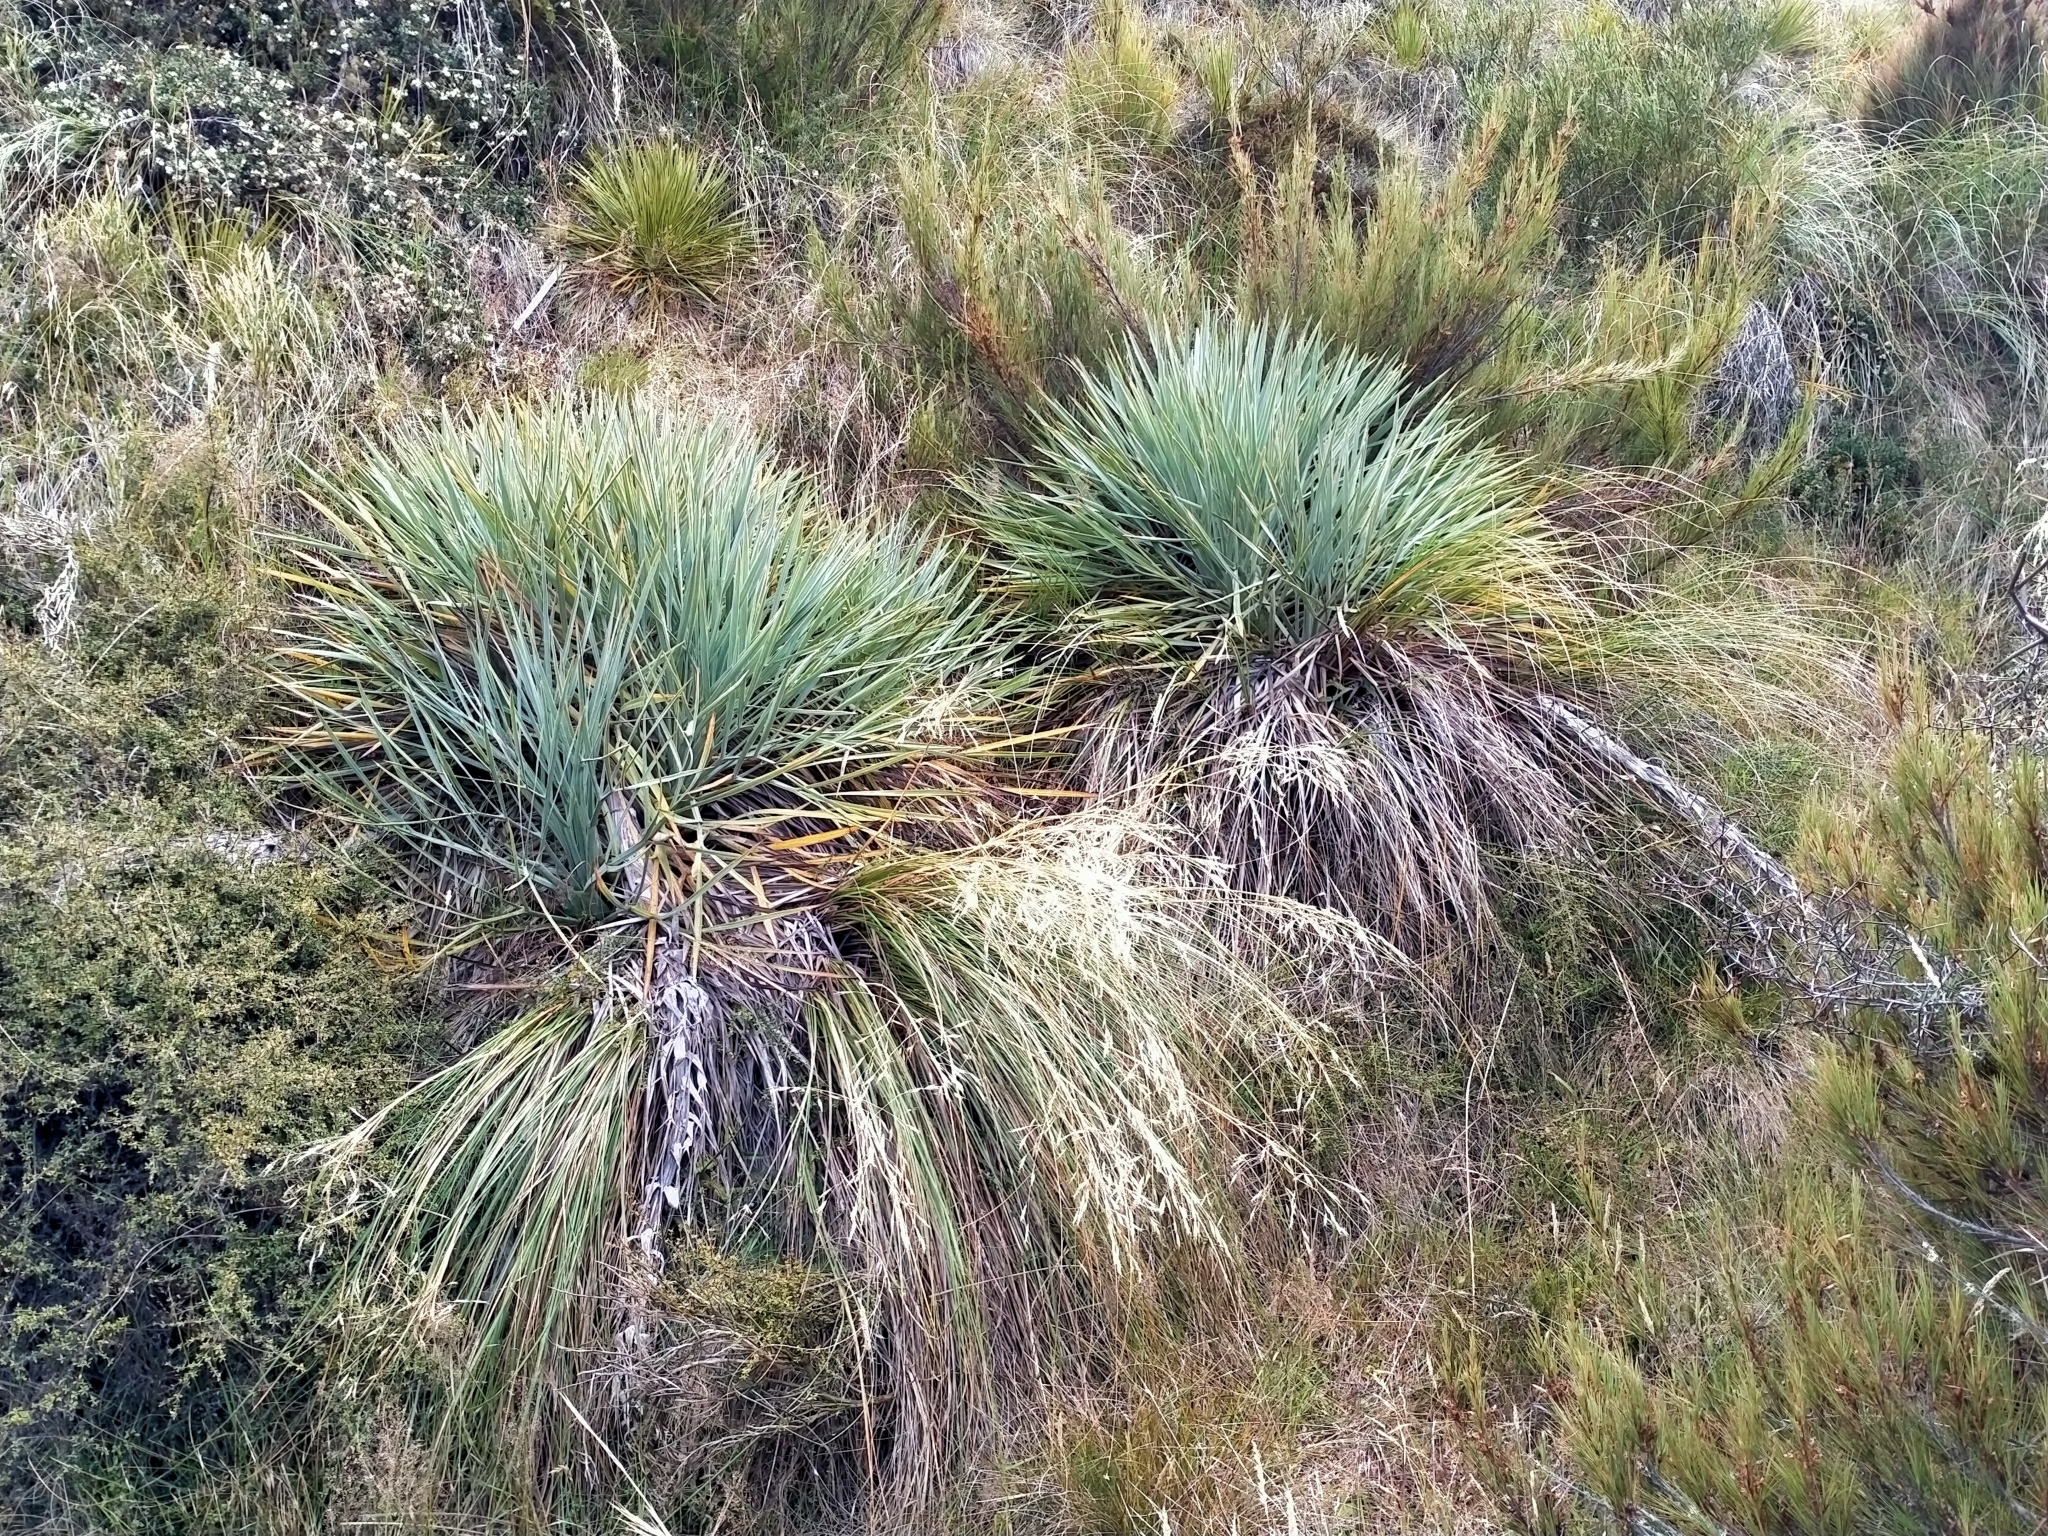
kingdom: Plantae
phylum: Tracheophyta
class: Magnoliopsida
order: Apiales
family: Apiaceae
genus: Aciphylla
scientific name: Aciphylla scott-thomsonii
